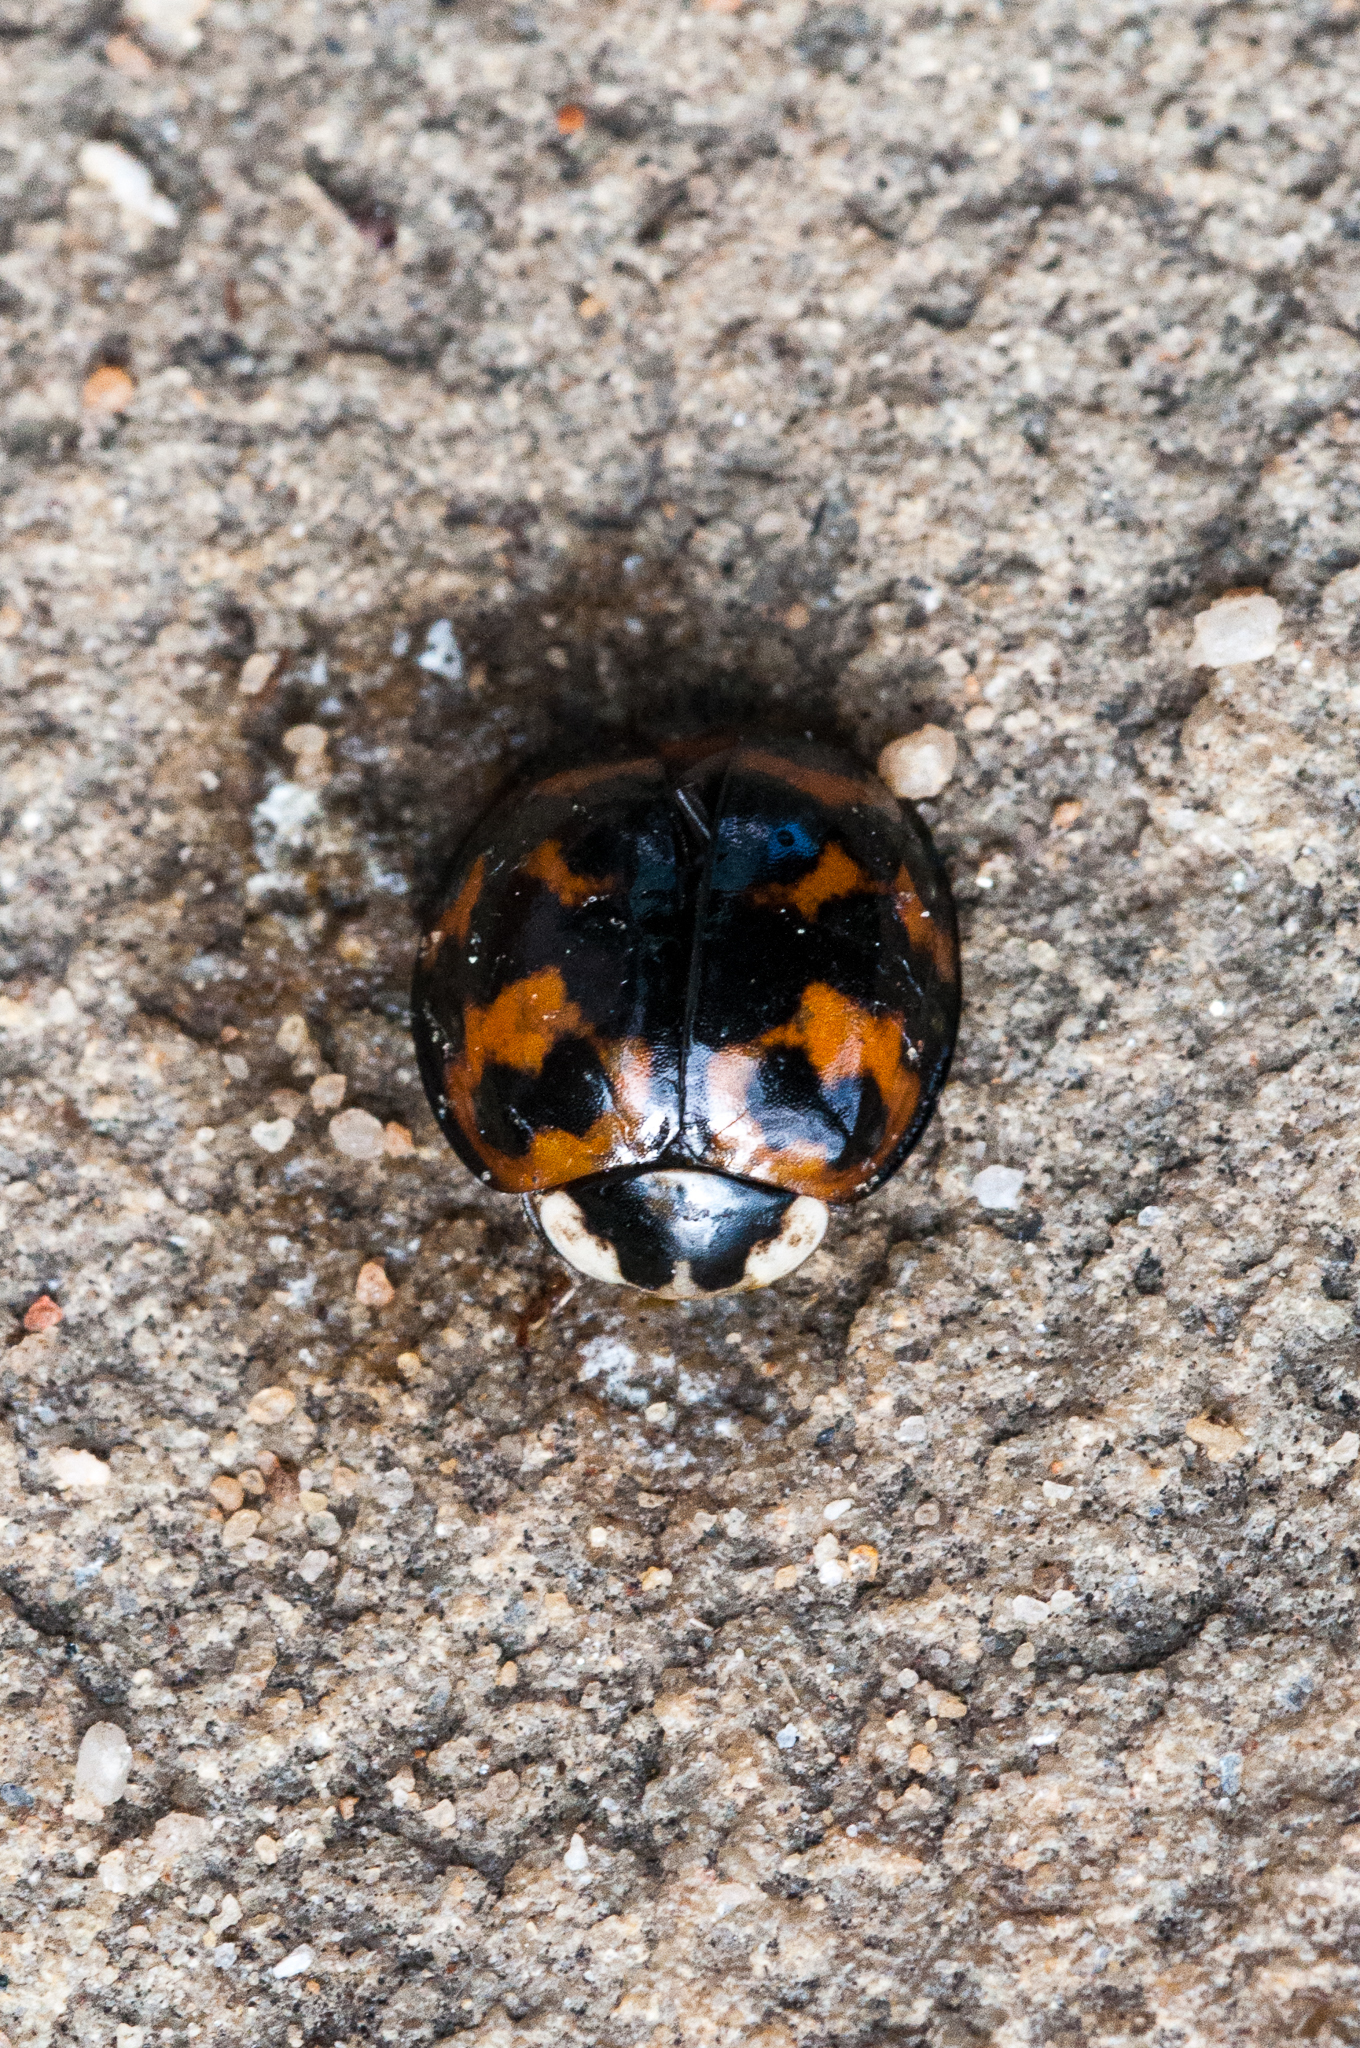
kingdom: Animalia
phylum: Arthropoda
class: Insecta
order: Coleoptera
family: Coccinellidae
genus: Harmonia
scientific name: Harmonia axyridis
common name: Harlequin ladybird
